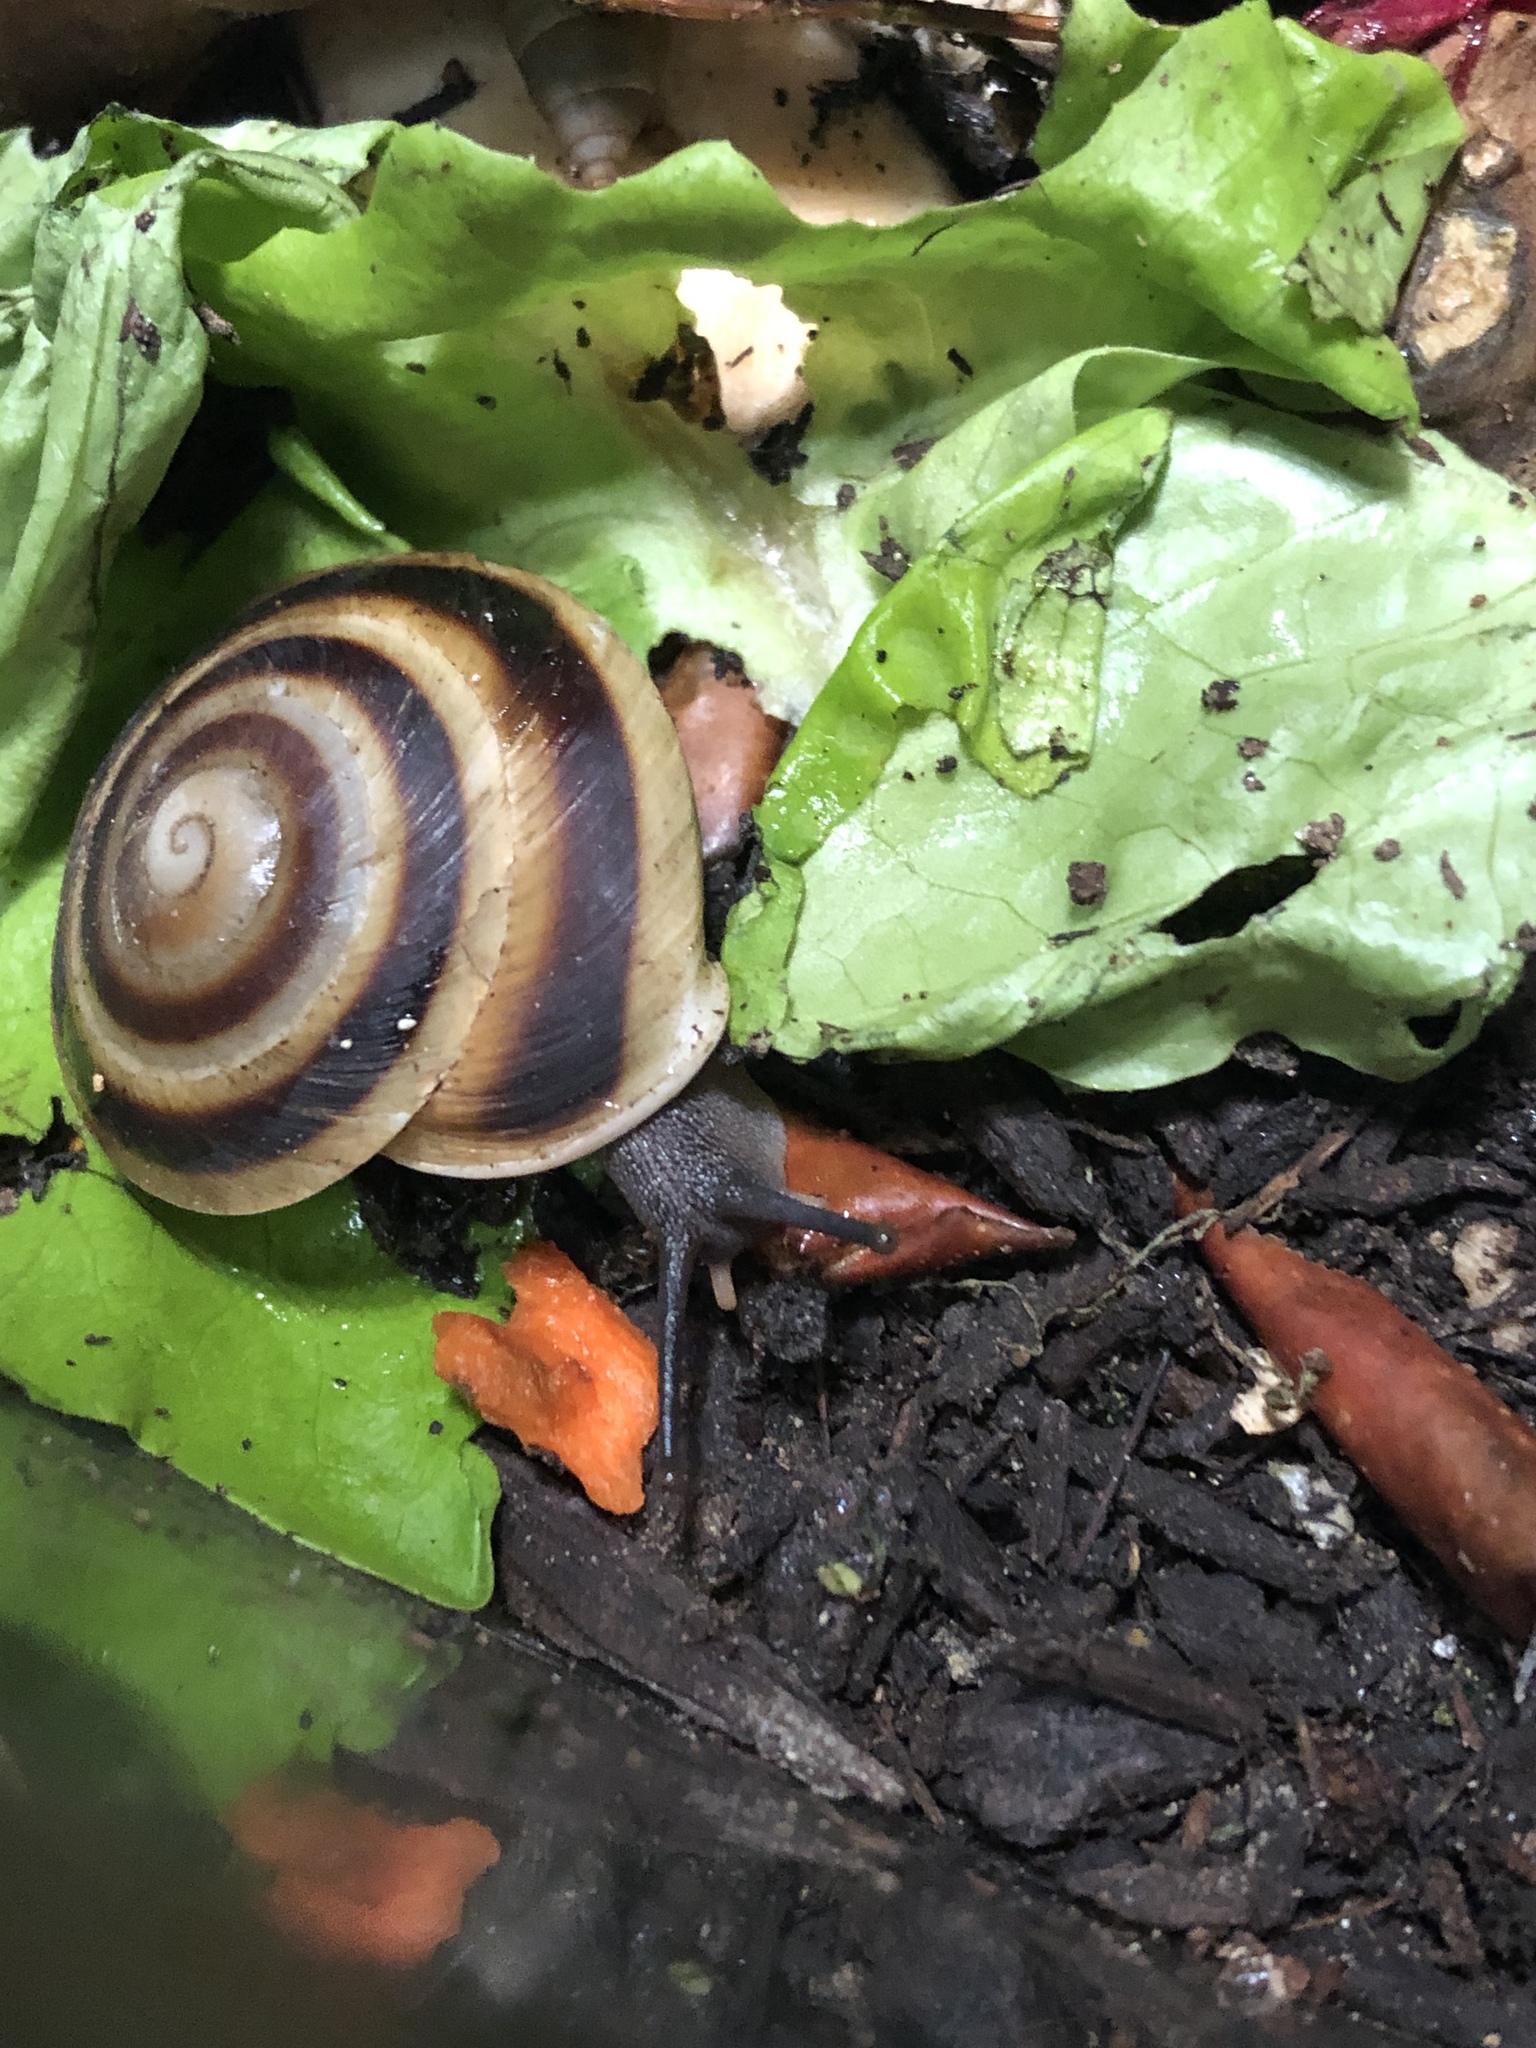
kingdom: Animalia
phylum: Mollusca
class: Gastropoda
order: Stylommatophora
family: Solaropsidae
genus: Caracolus
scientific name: Caracolus marginella
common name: Banded caracol
